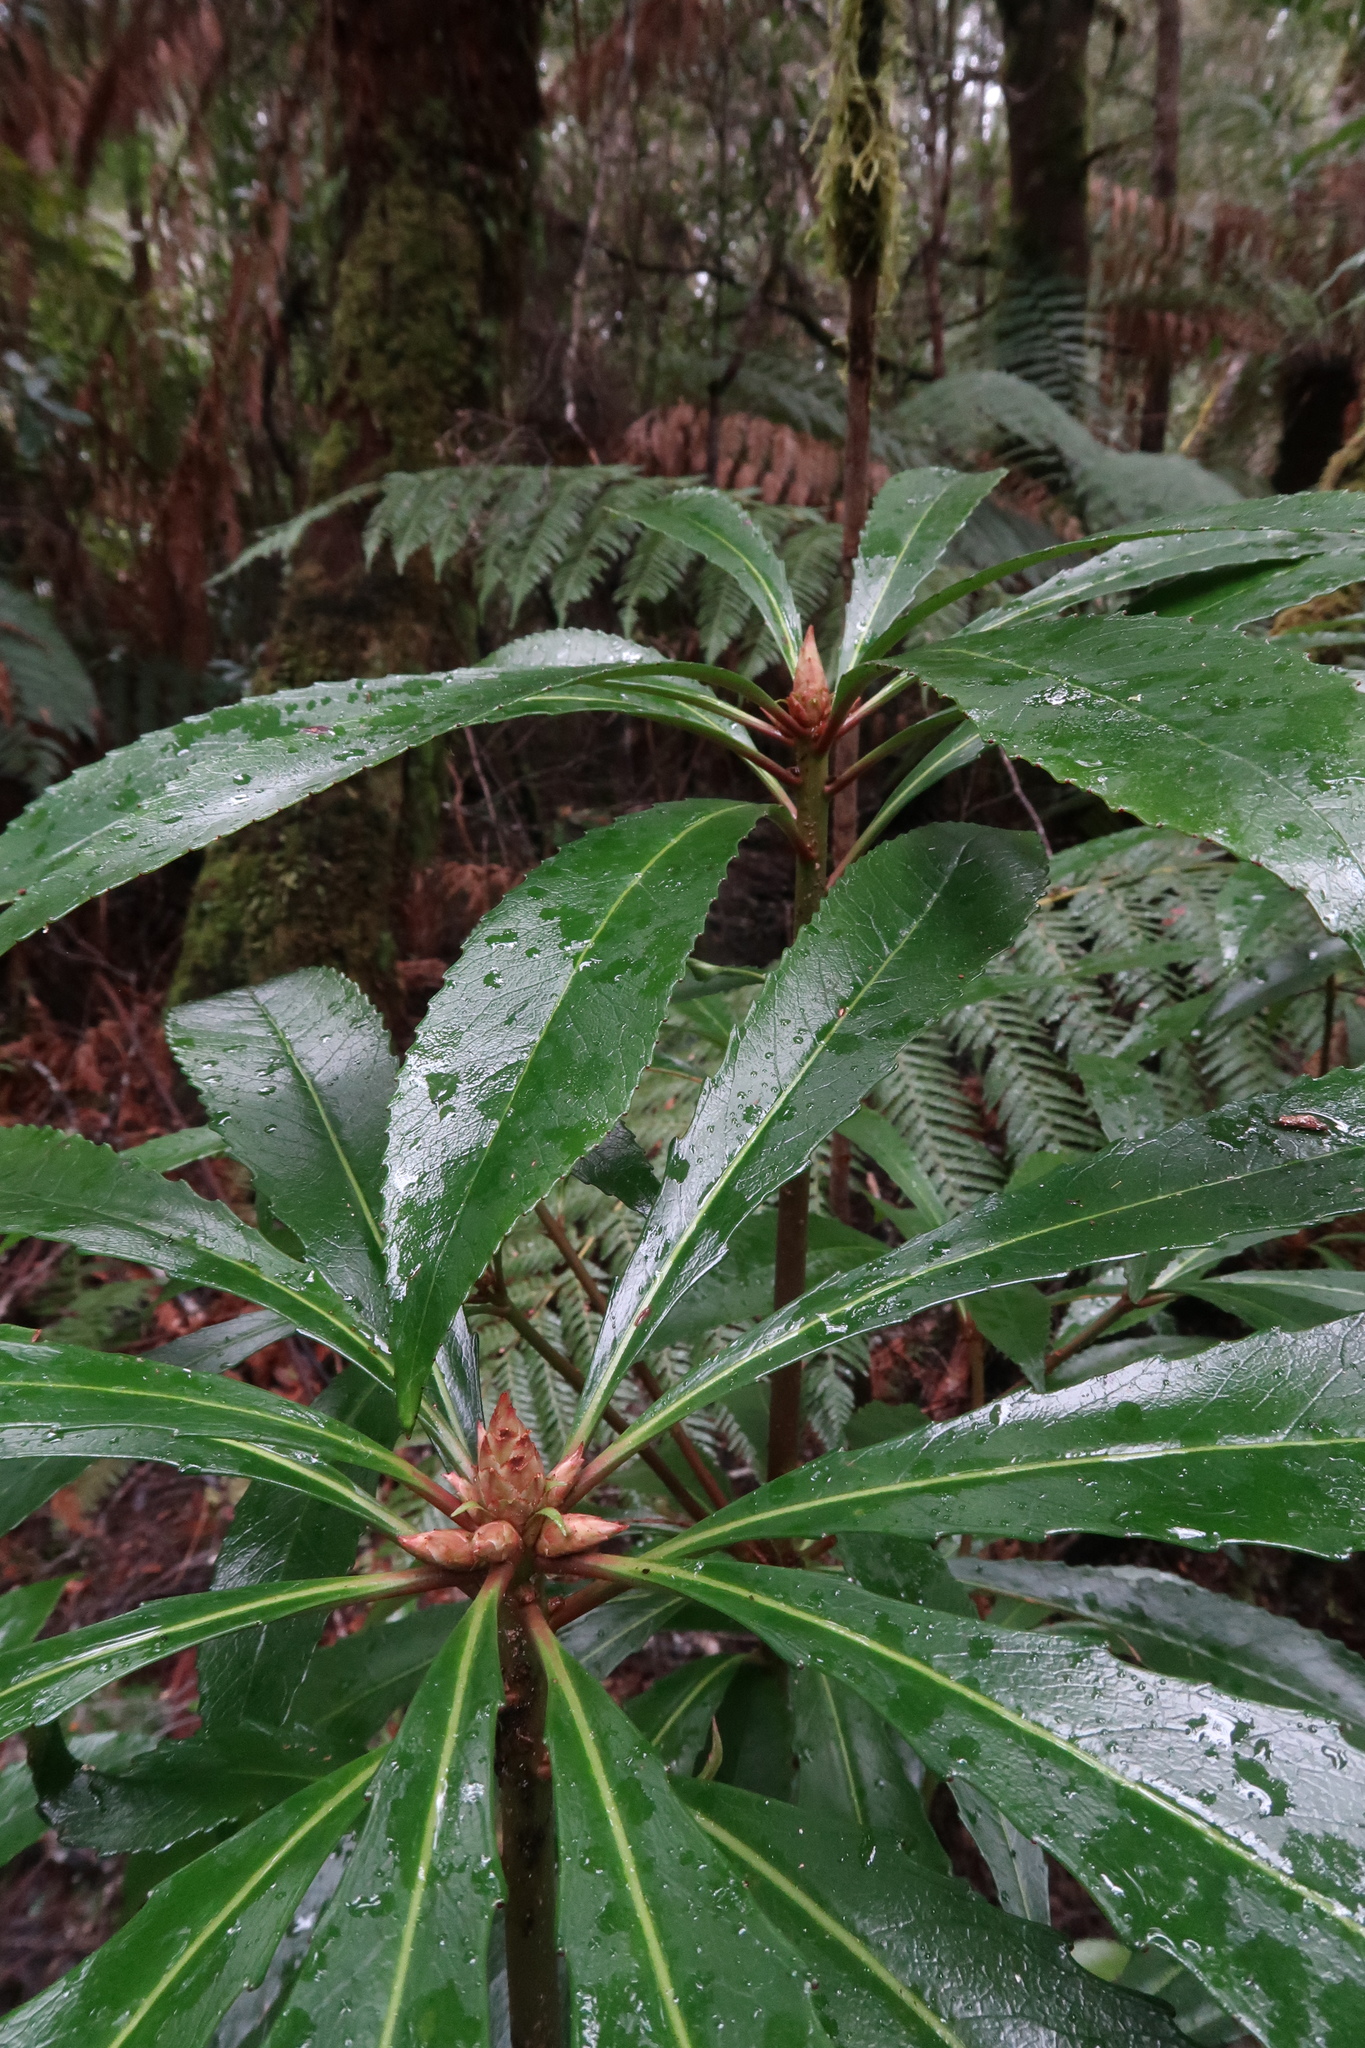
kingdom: Plantae
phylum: Tracheophyta
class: Magnoliopsida
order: Escalloniales
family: Escalloniaceae
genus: Anopterus
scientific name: Anopterus glandulosus
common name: Tasmanian-laurel
